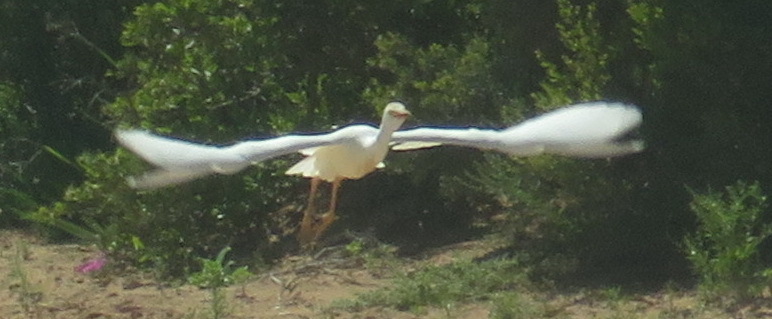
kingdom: Animalia
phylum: Chordata
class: Aves
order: Pelecaniformes
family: Ardeidae
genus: Bubulcus
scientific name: Bubulcus ibis
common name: Cattle egret
